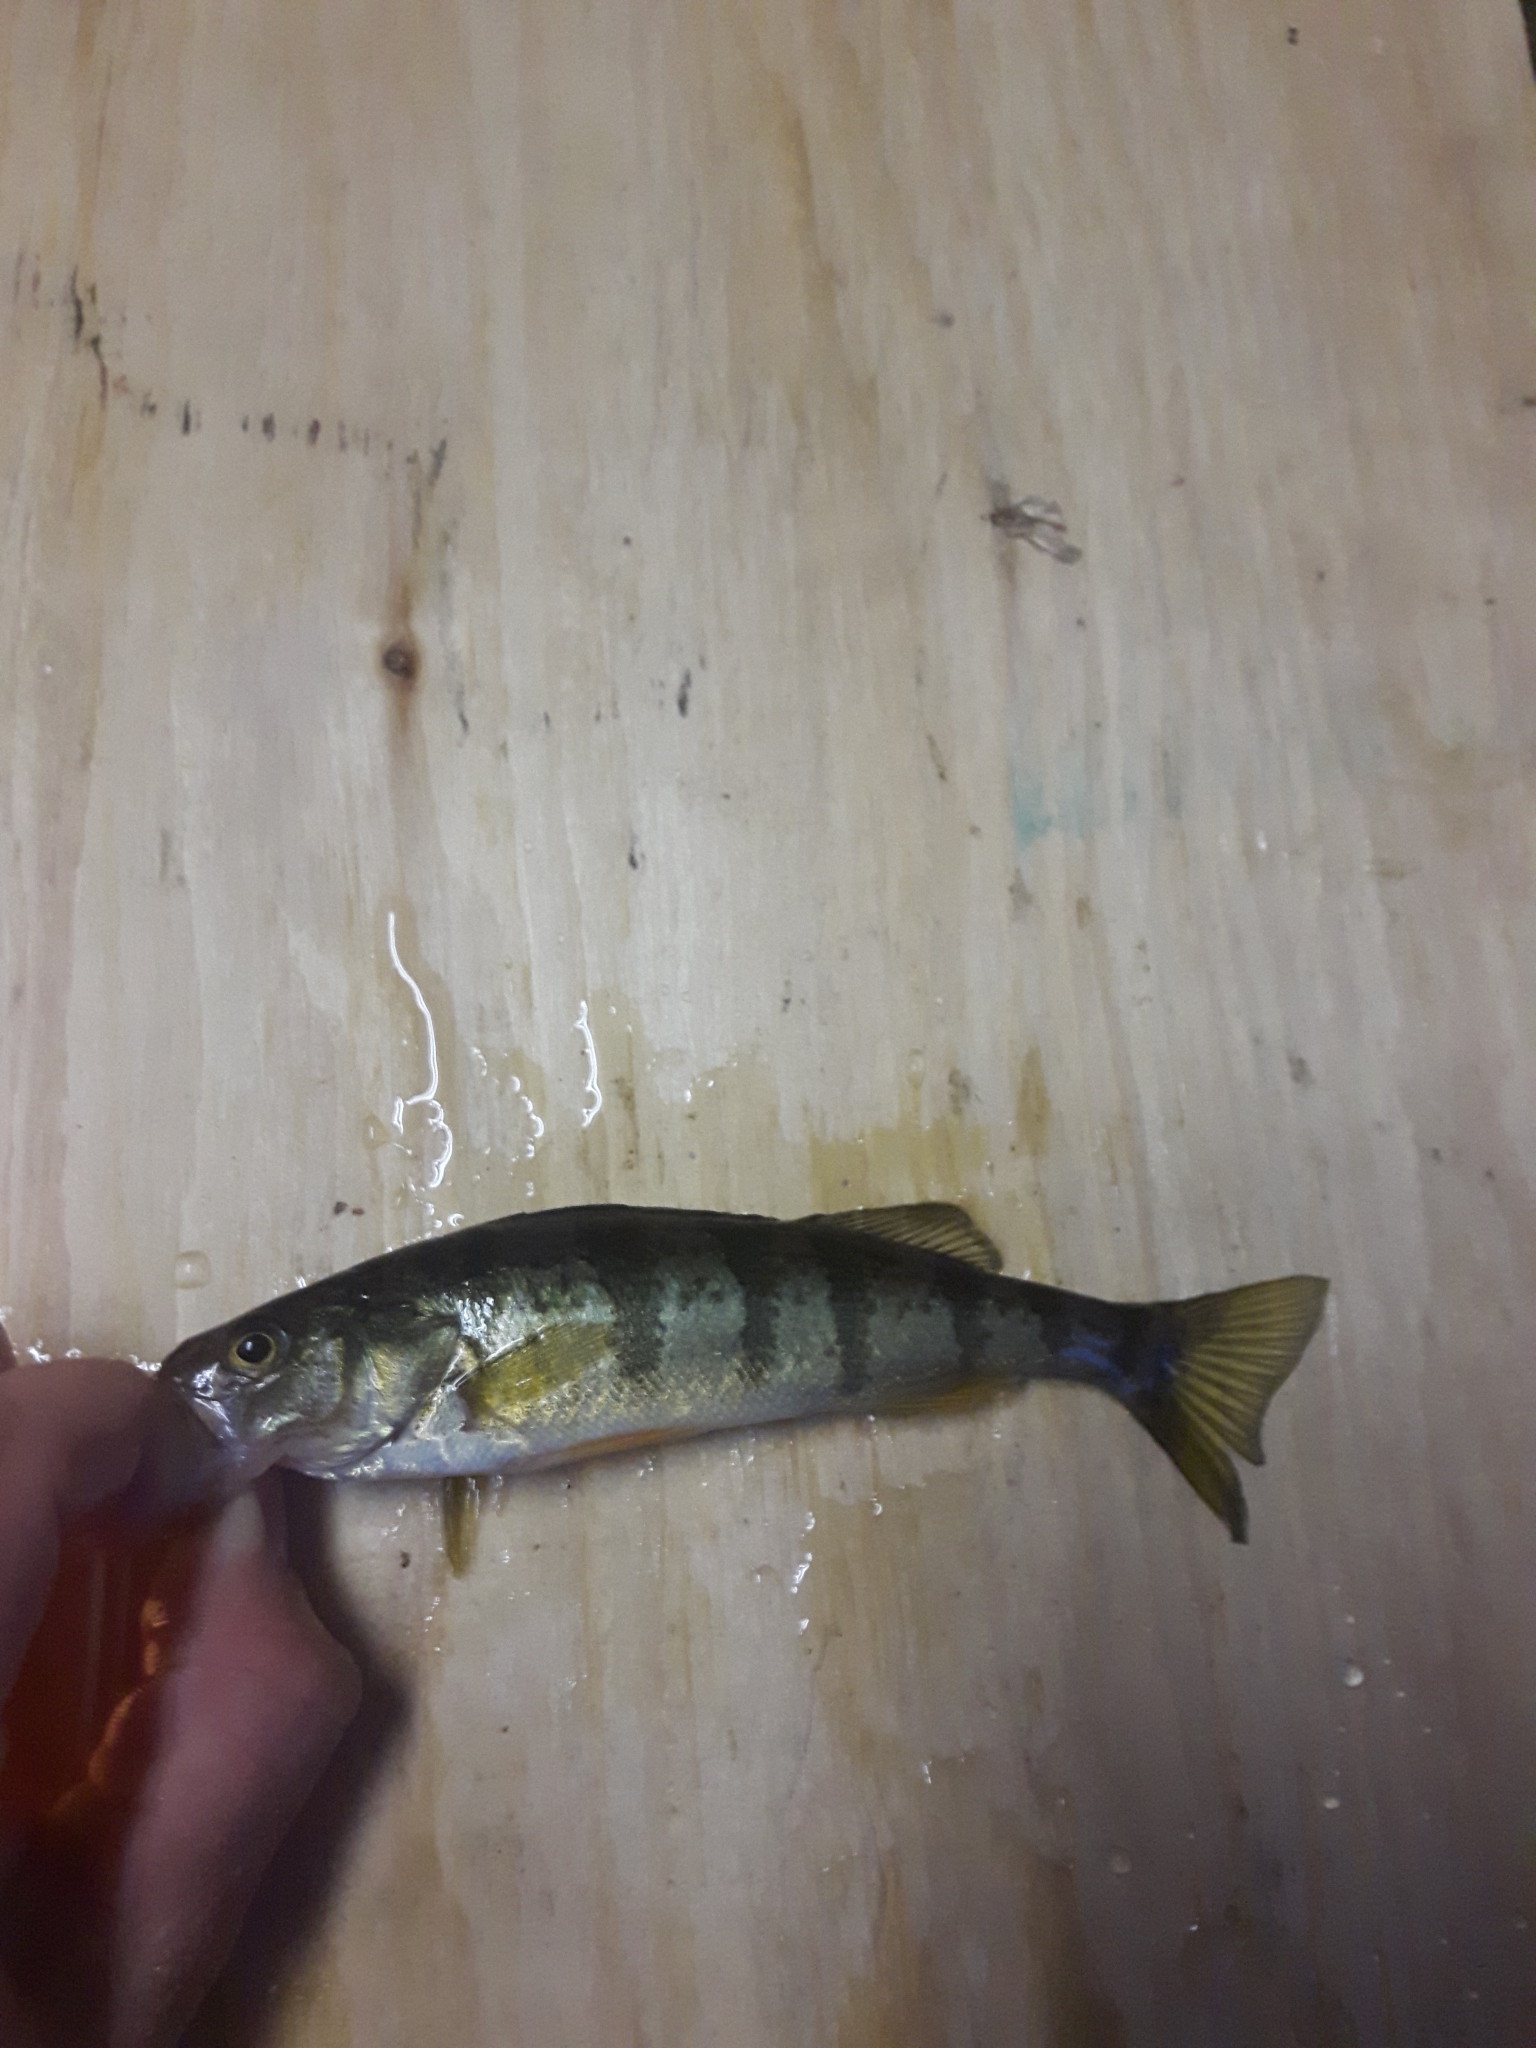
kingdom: Animalia
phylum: Chordata
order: Perciformes
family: Percidae
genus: Perca
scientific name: Perca flavescens
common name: Yellow perch
